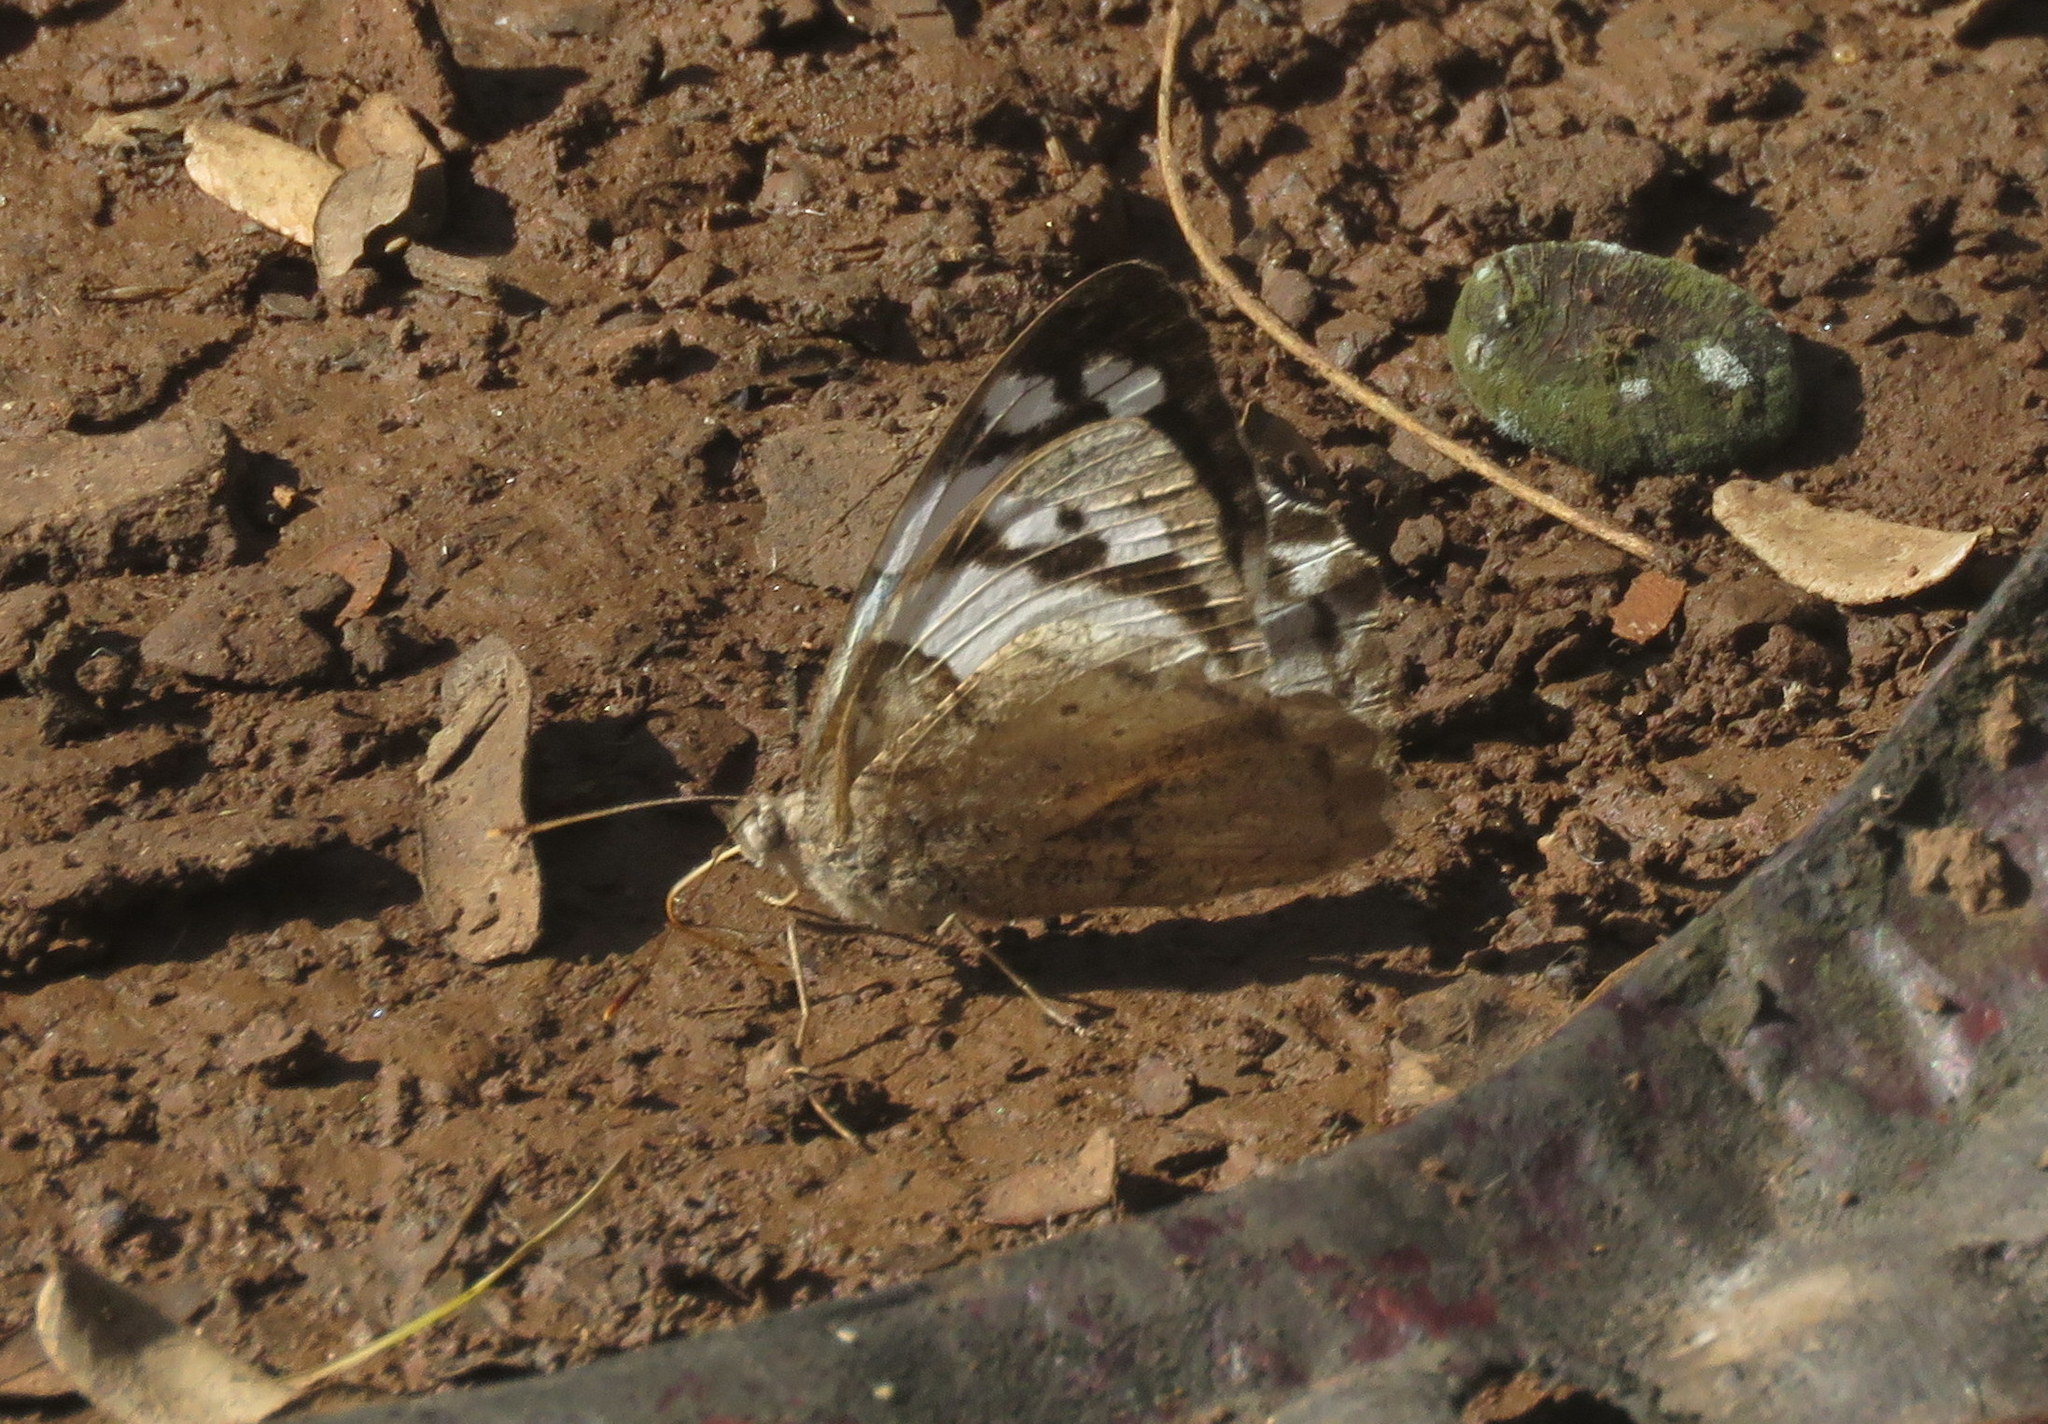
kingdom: Animalia
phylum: Arthropoda
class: Insecta
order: Lepidoptera
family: Nymphalidae
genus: Eunica
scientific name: Eunica eburnea
